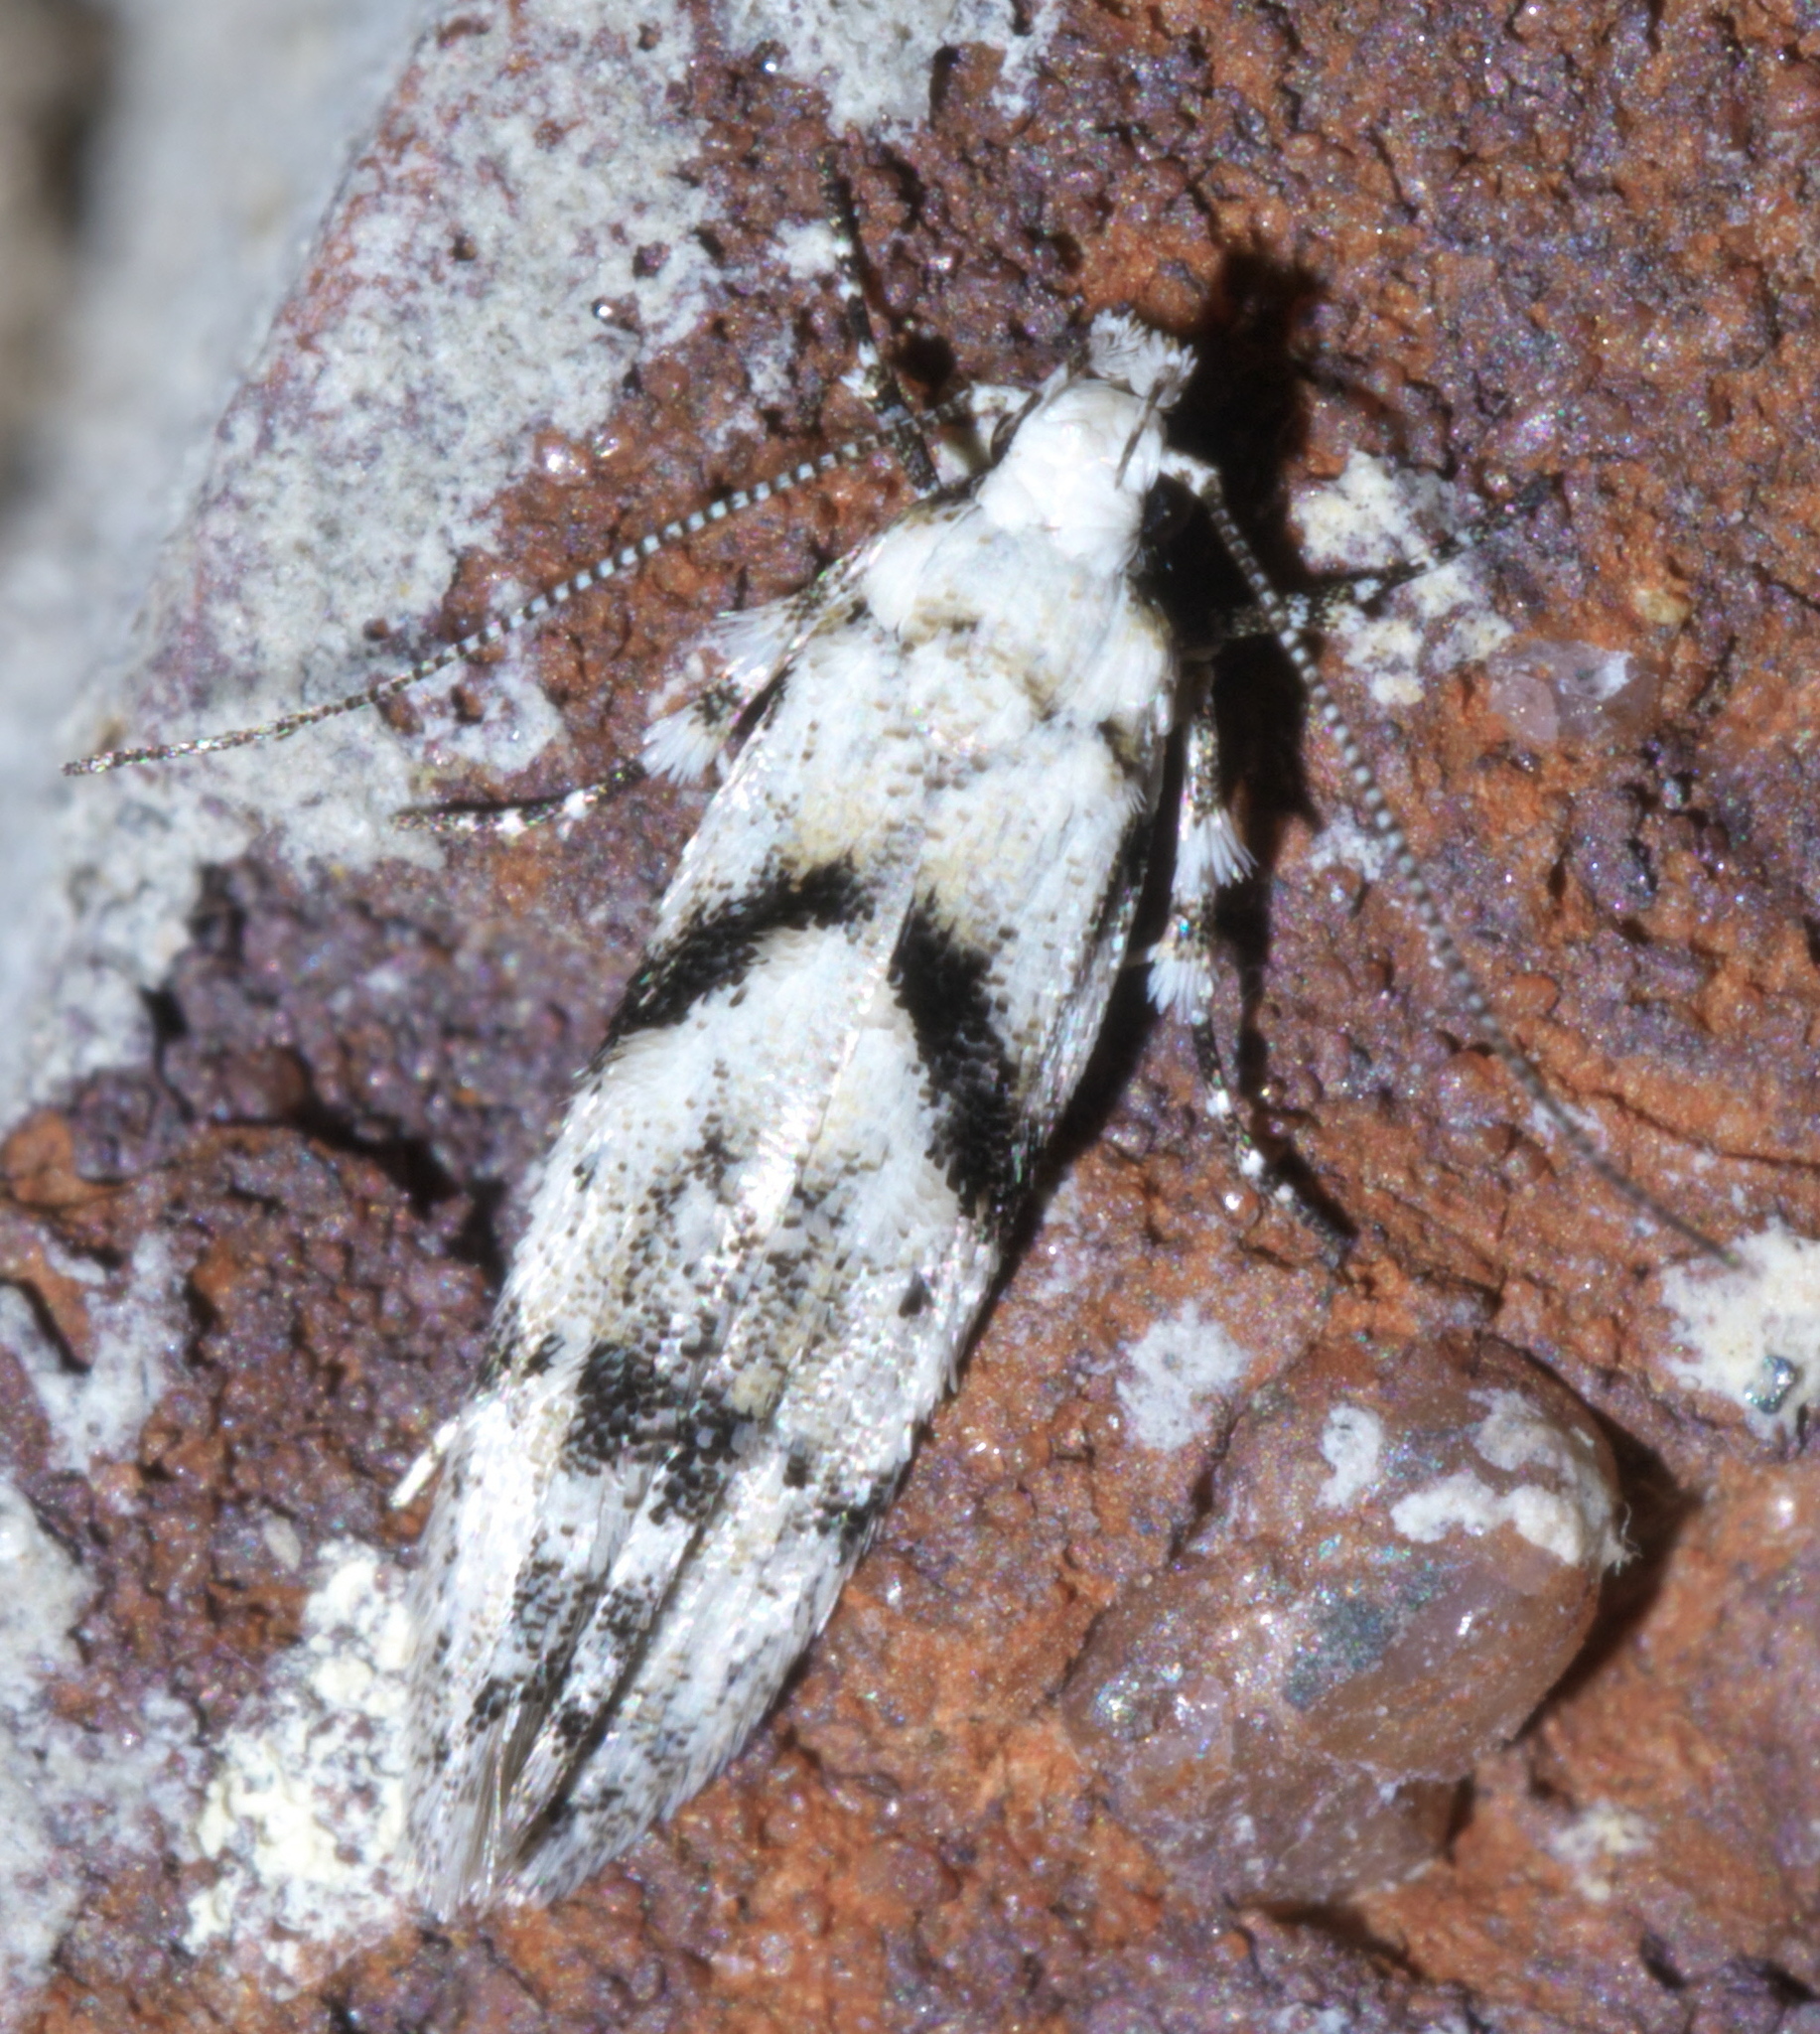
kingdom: Animalia
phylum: Arthropoda
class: Insecta
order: Lepidoptera
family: Gelechiidae
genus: Arogalea
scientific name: Arogalea cristifasciella
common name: White stripe-backed moth
